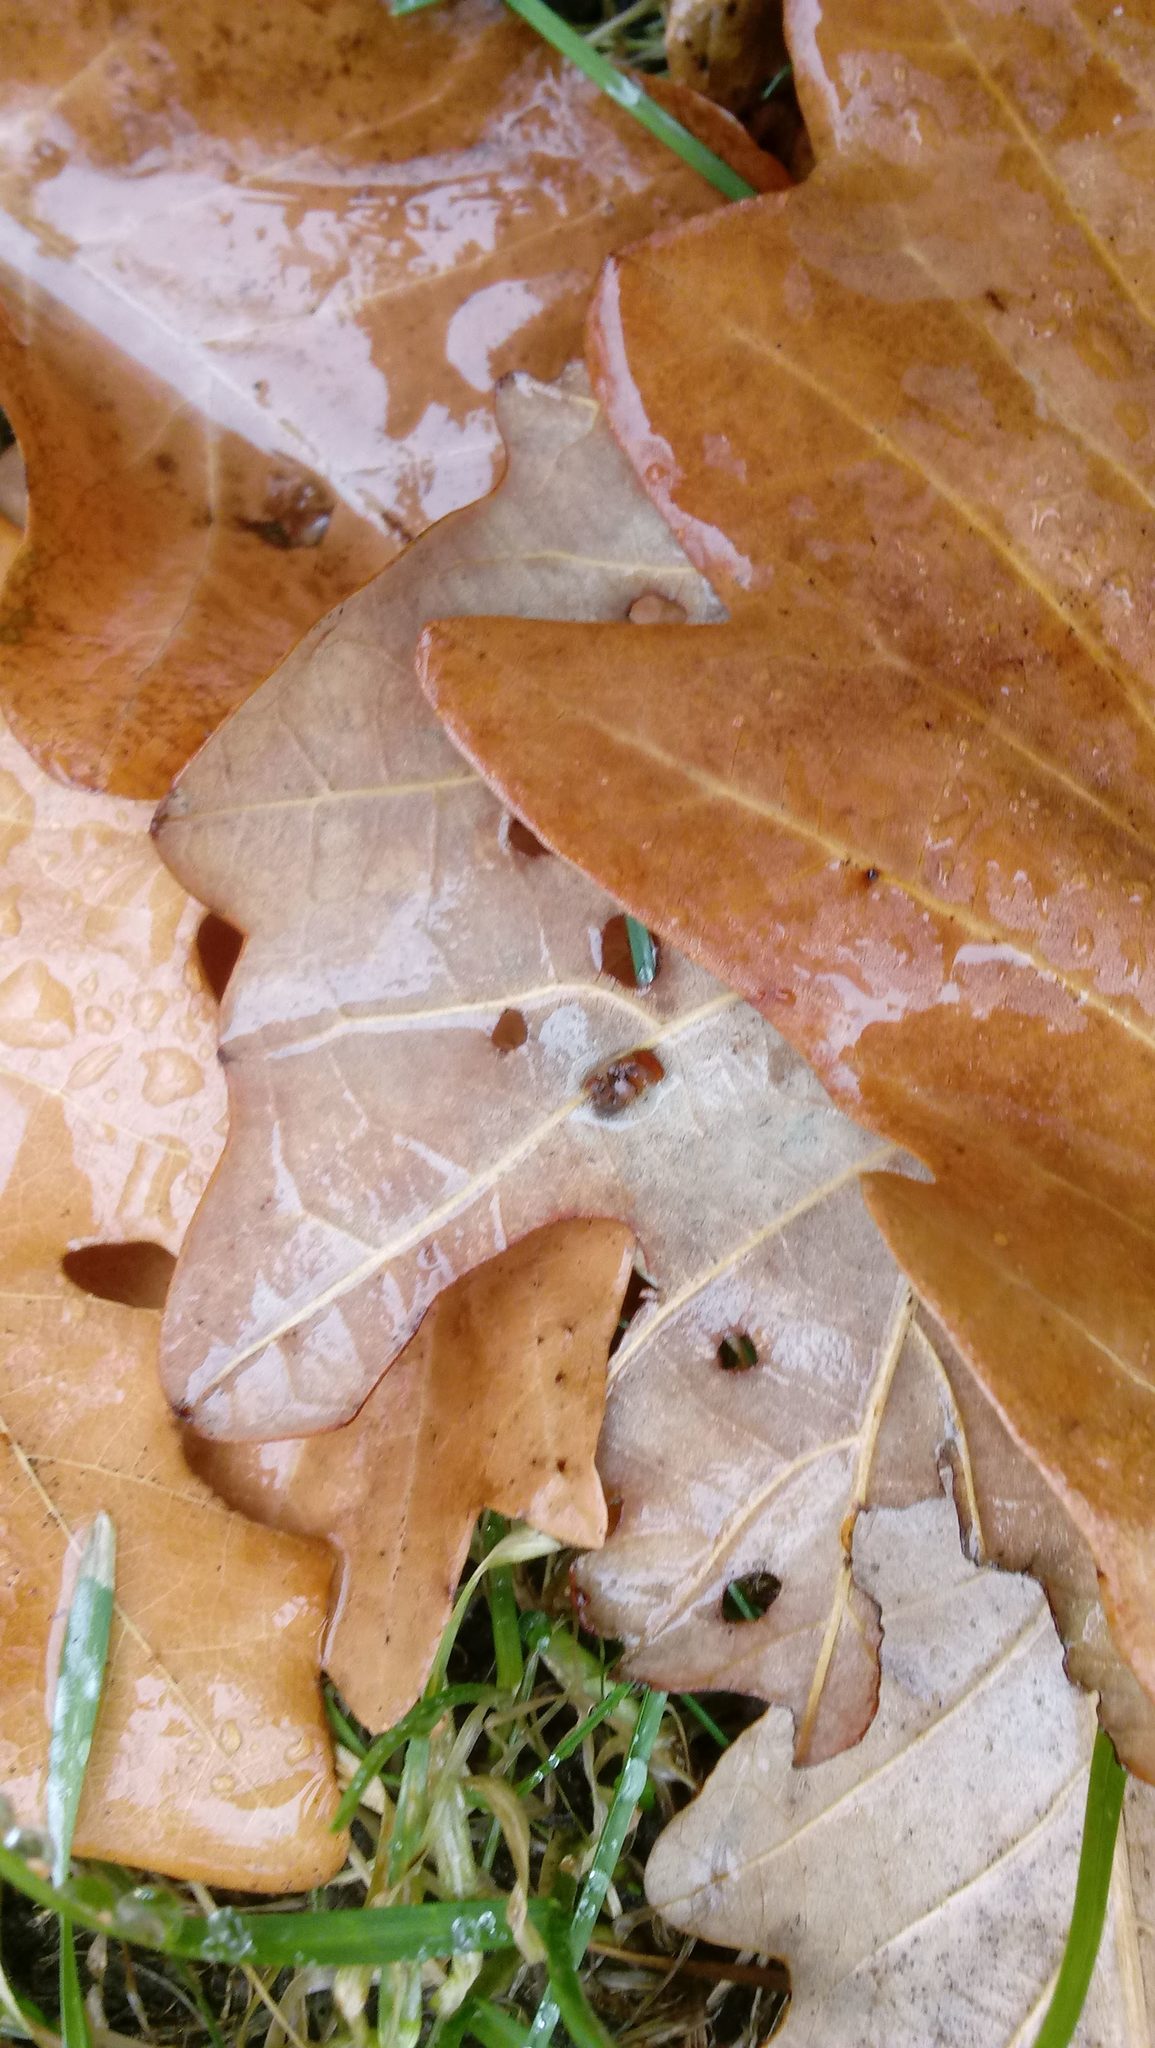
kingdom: Animalia
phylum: Arthropoda
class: Insecta
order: Hymenoptera
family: Cynipidae
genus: Andricus
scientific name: Andricus Druon ignotum
